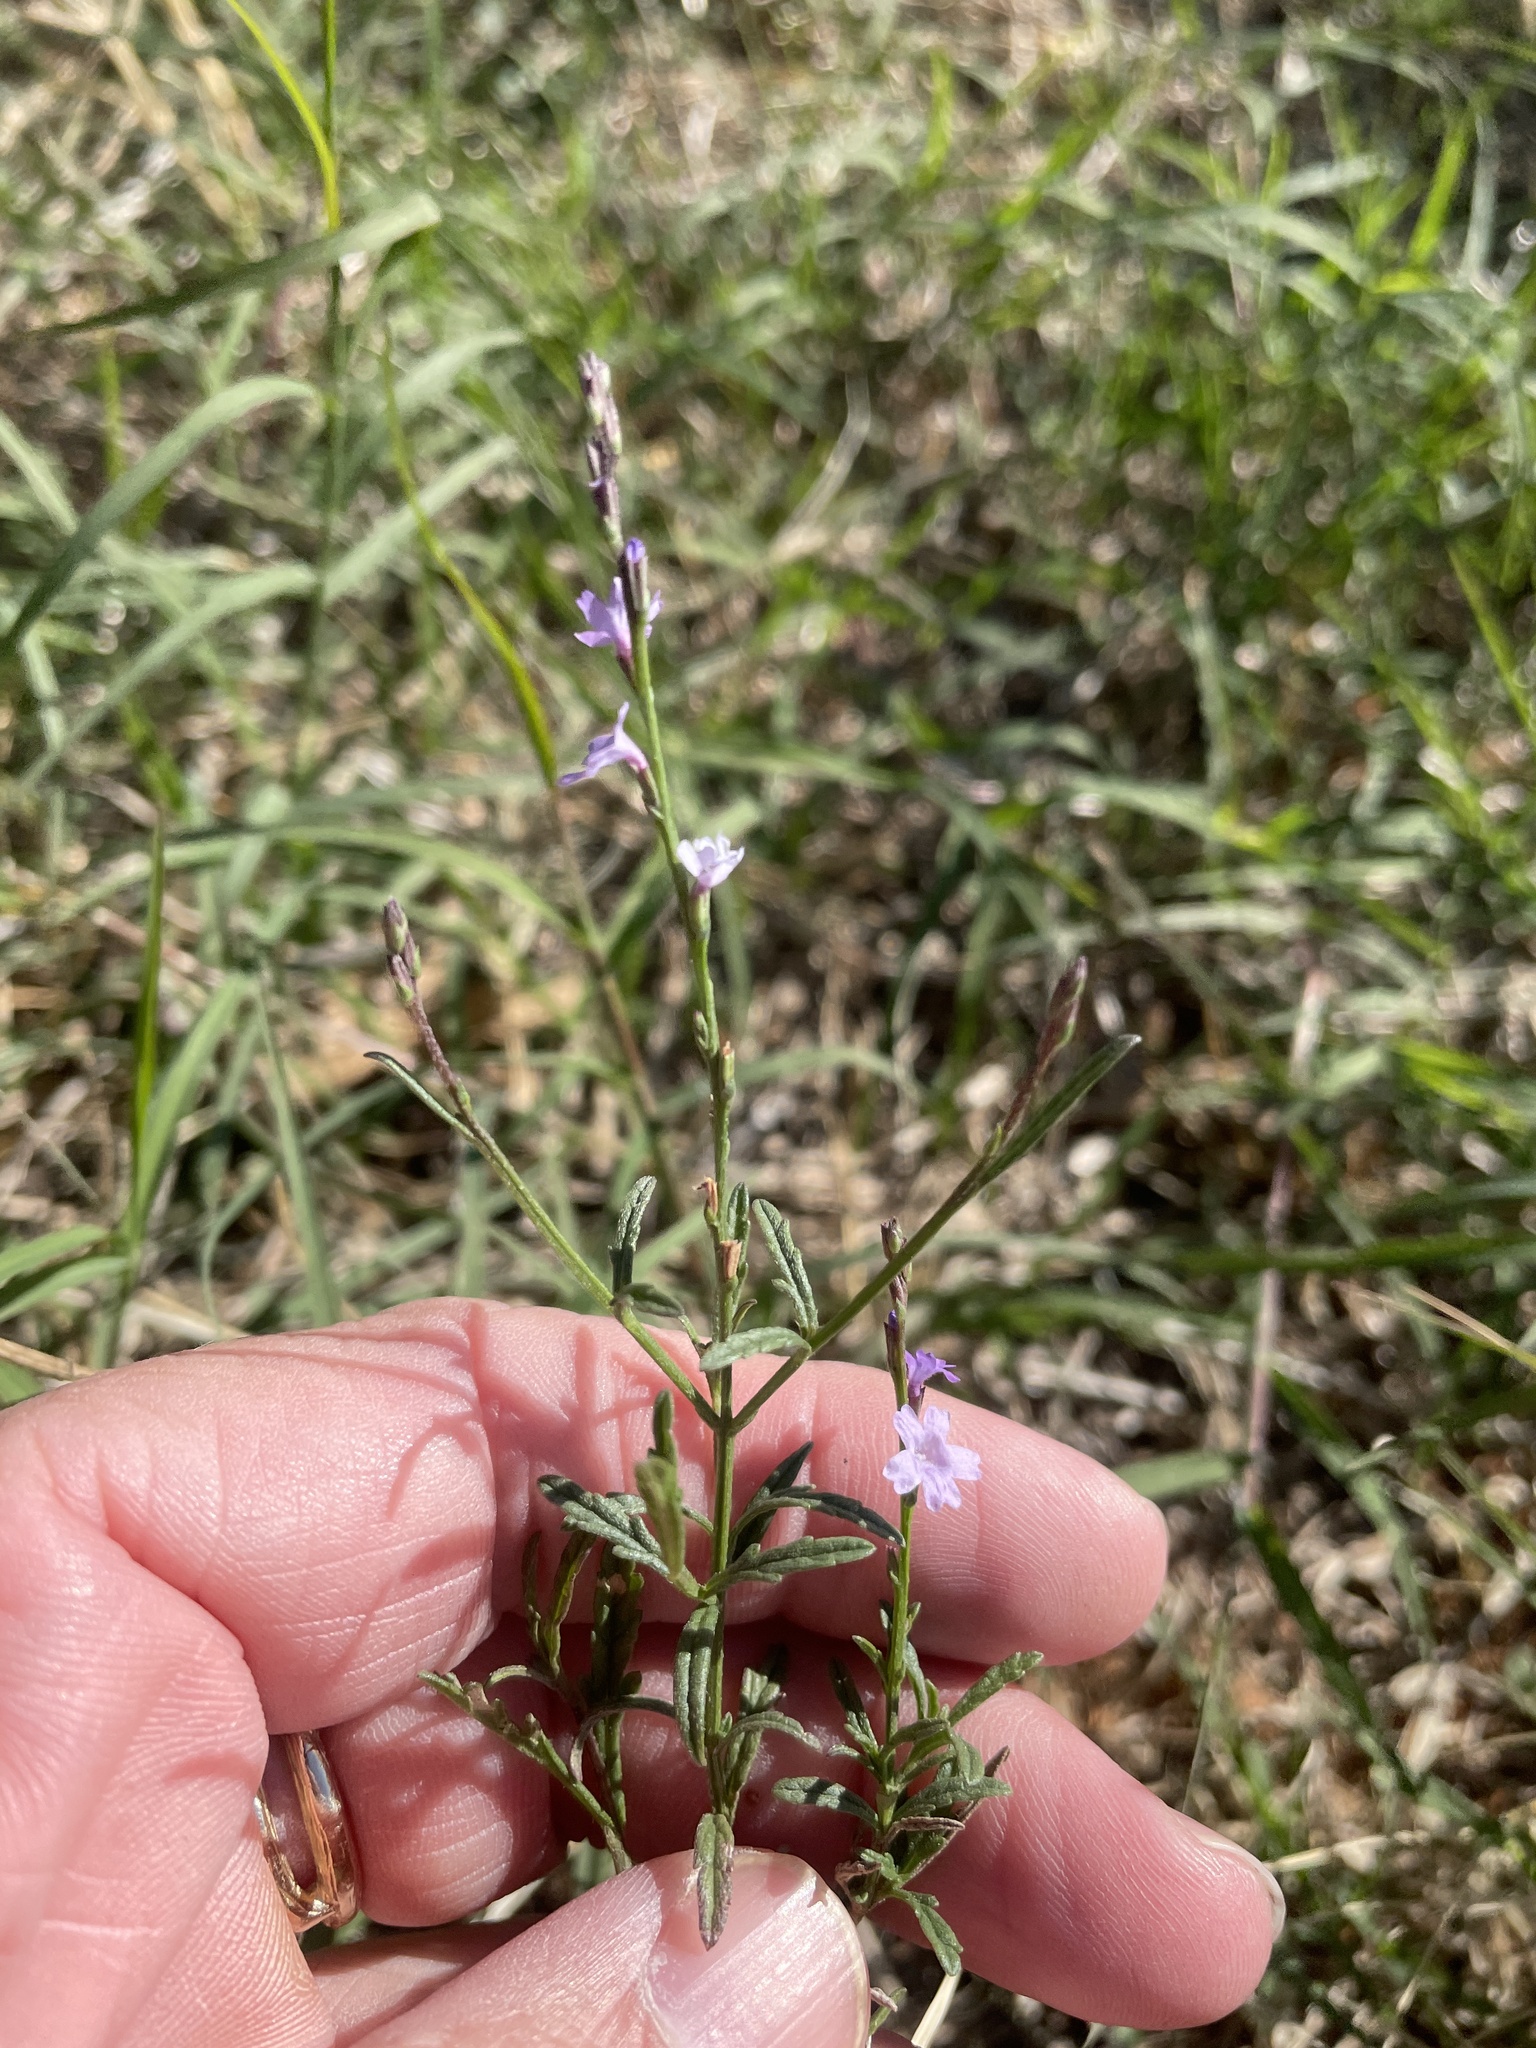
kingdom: Plantae
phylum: Tracheophyta
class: Magnoliopsida
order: Lamiales
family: Verbenaceae
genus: Verbena
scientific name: Verbena halei
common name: Texas vervain
